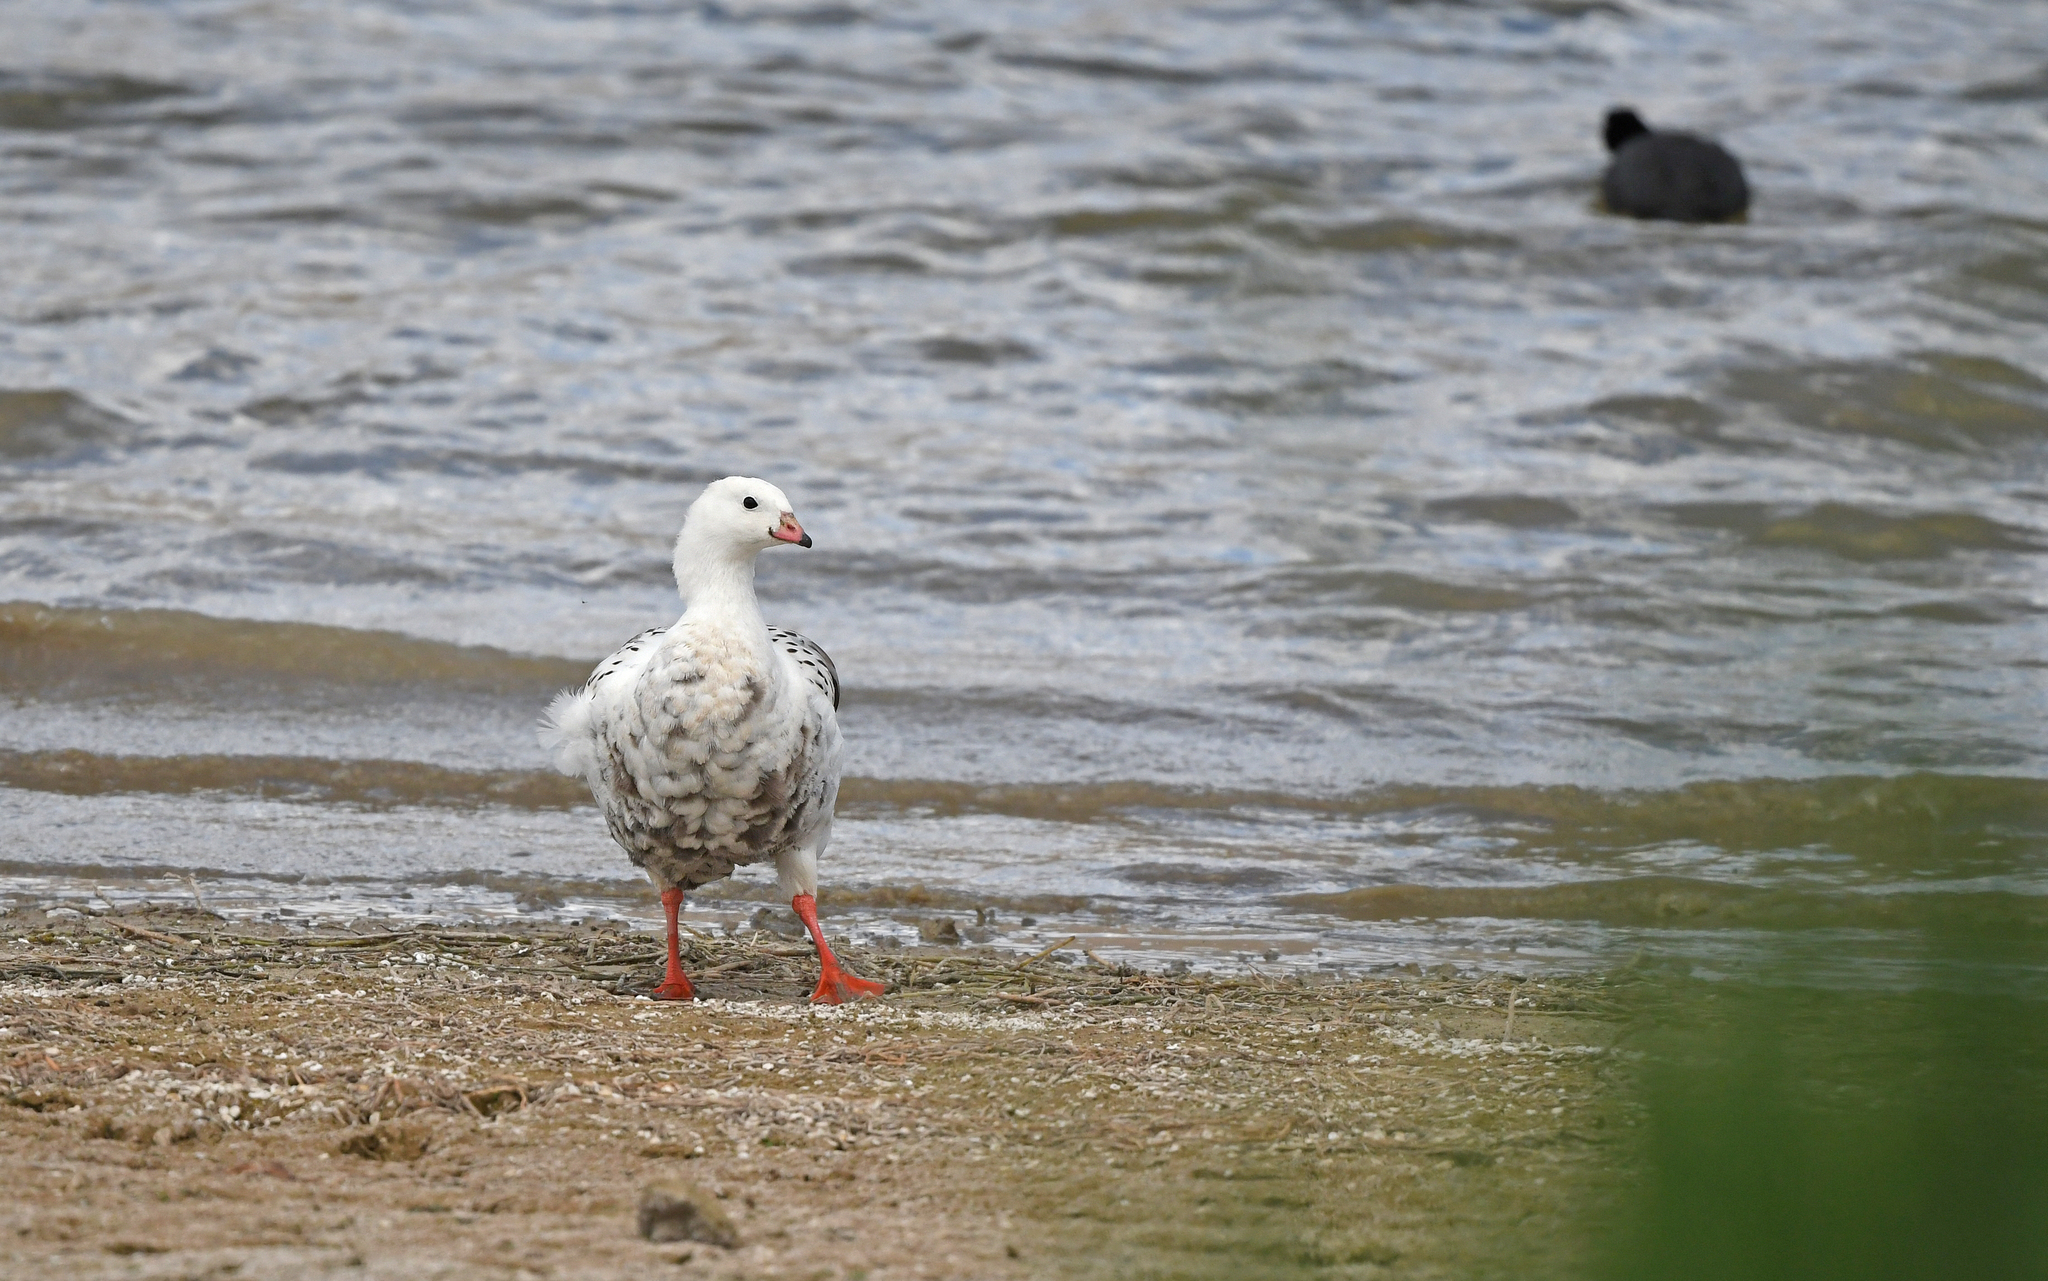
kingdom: Animalia
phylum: Chordata
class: Aves
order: Anseriformes
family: Anatidae
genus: Chloephaga
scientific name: Chloephaga melanoptera
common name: Andean goose
